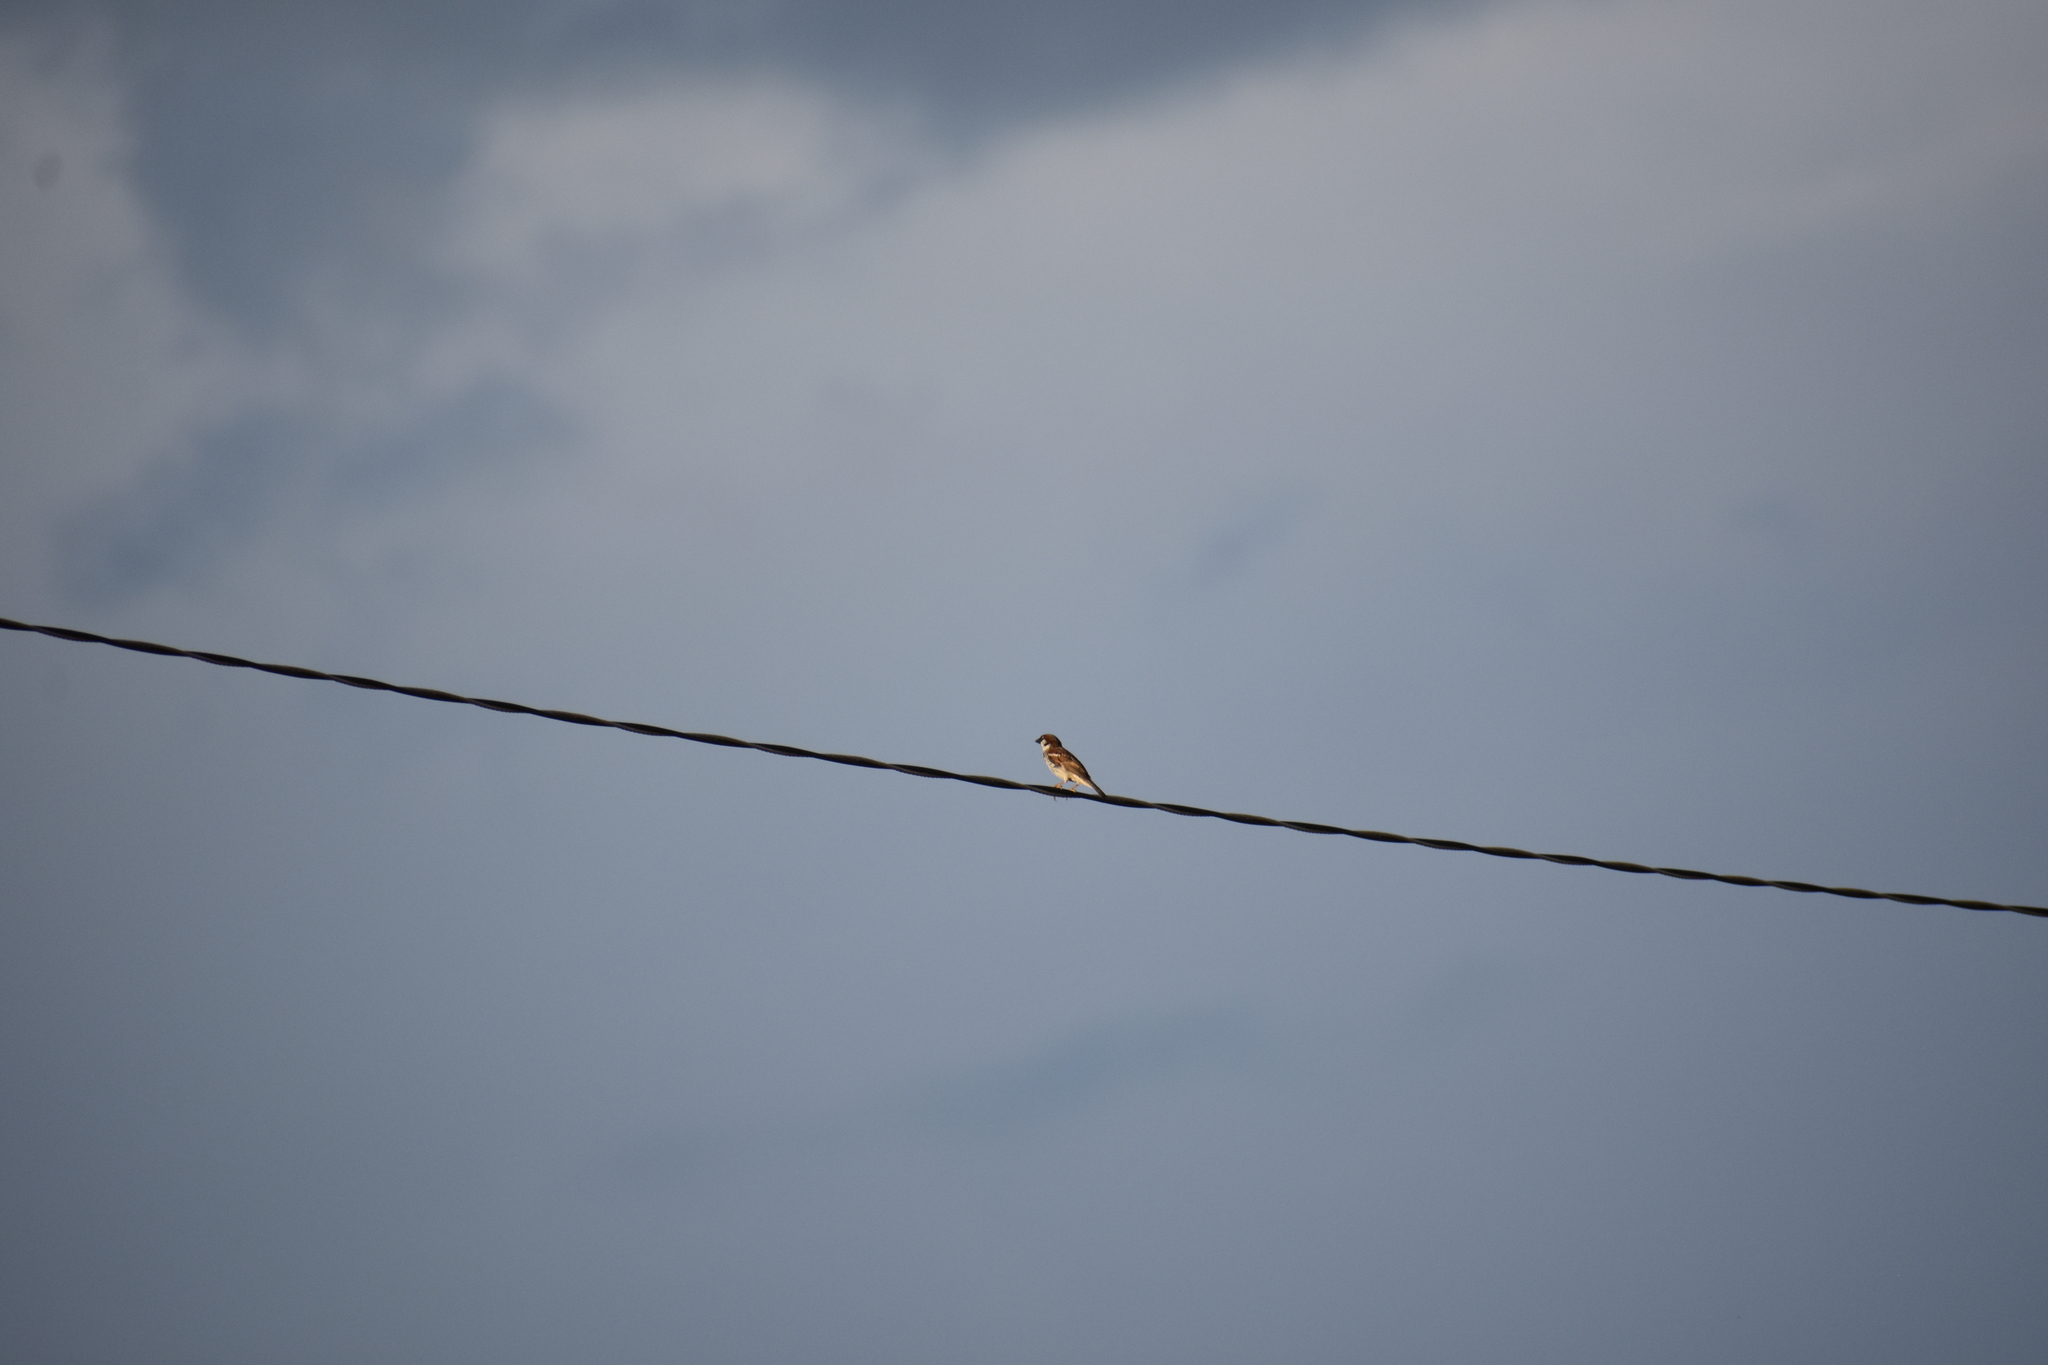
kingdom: Animalia
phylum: Chordata
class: Aves
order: Passeriformes
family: Passeridae
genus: Passer
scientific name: Passer domesticus
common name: House sparrow
